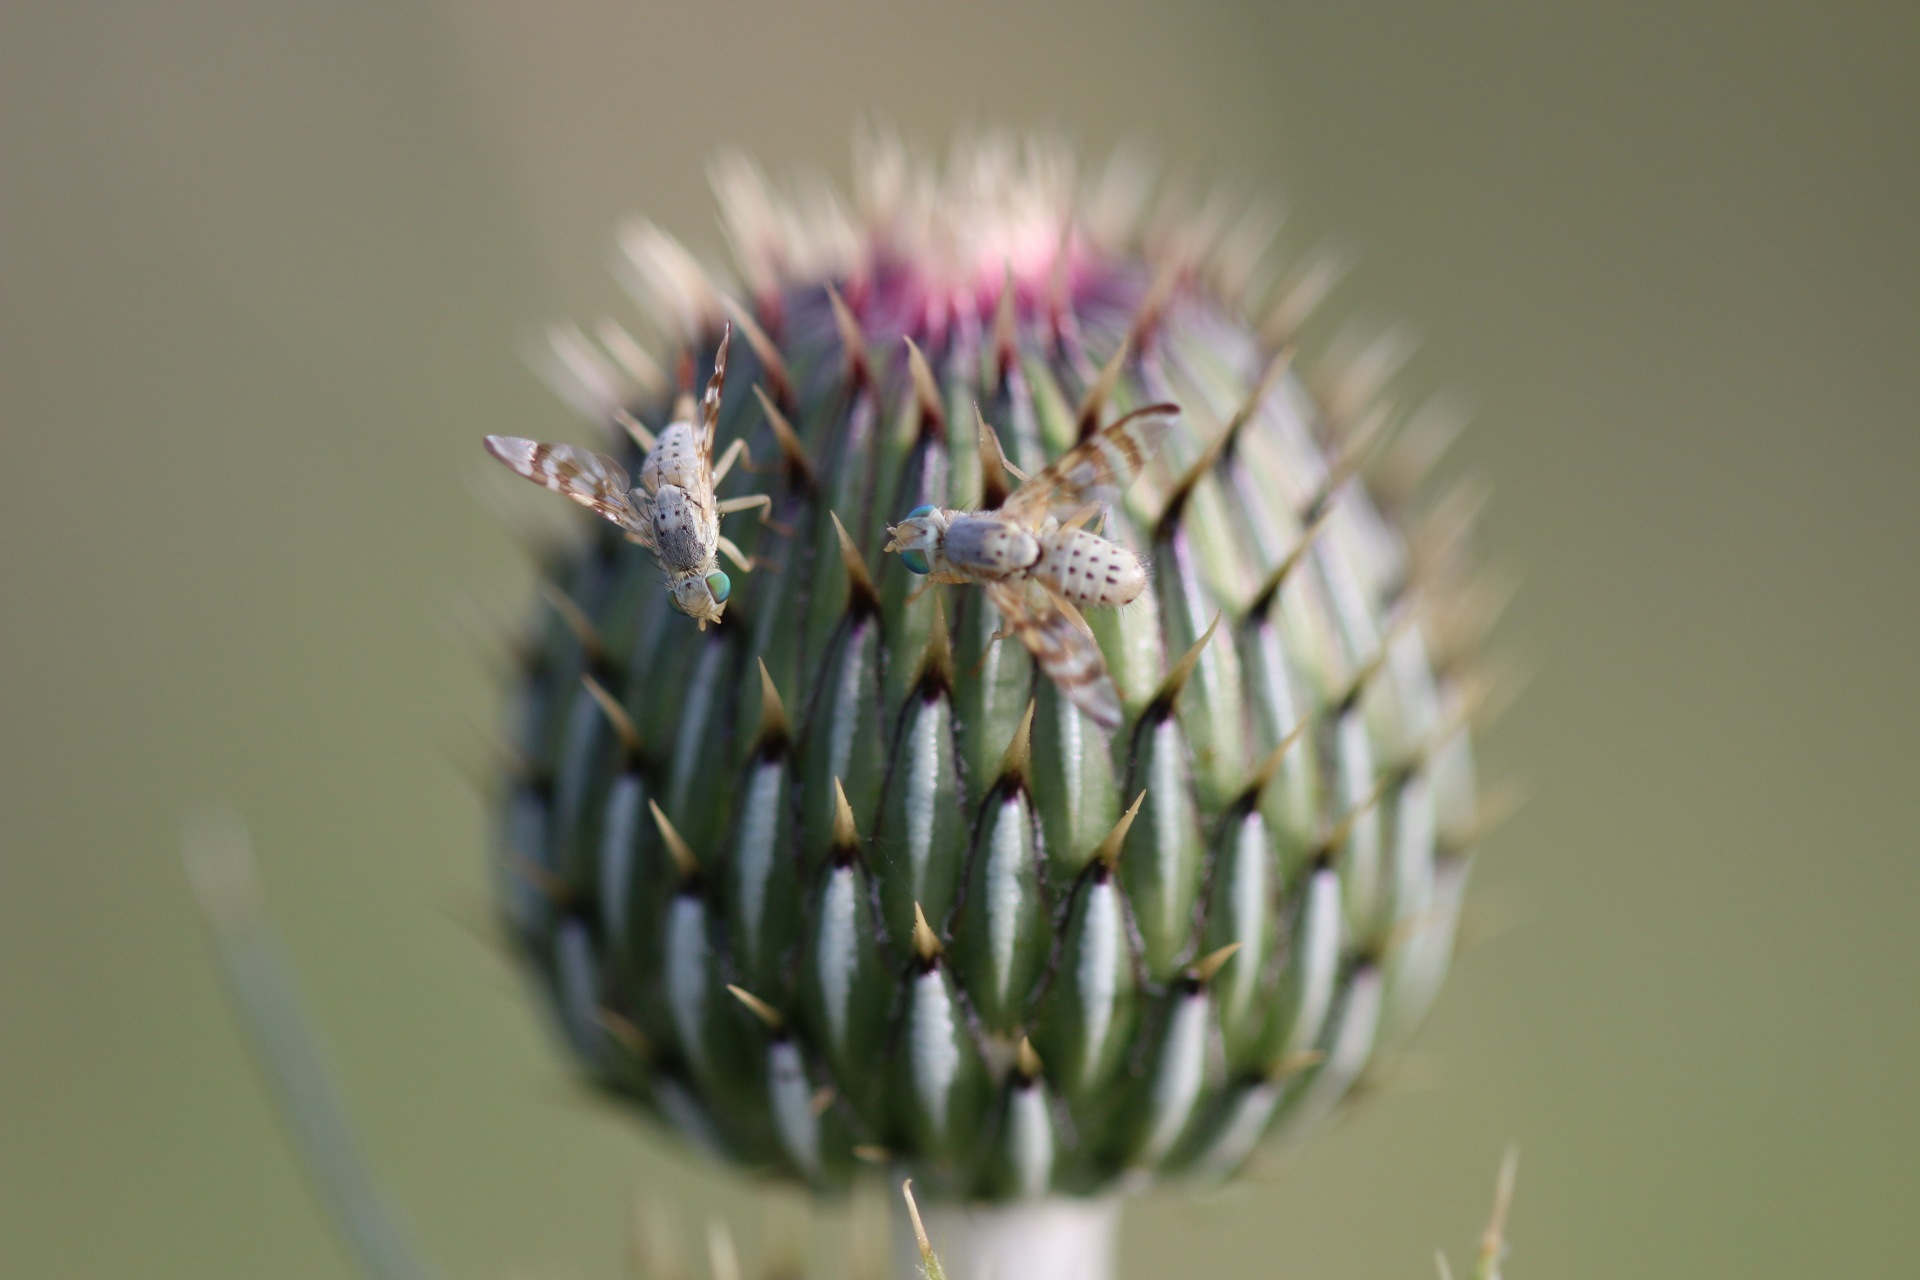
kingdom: Animalia
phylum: Arthropoda
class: Insecta
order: Diptera
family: Tephritidae
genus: Terellia
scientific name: Terellia palposa
